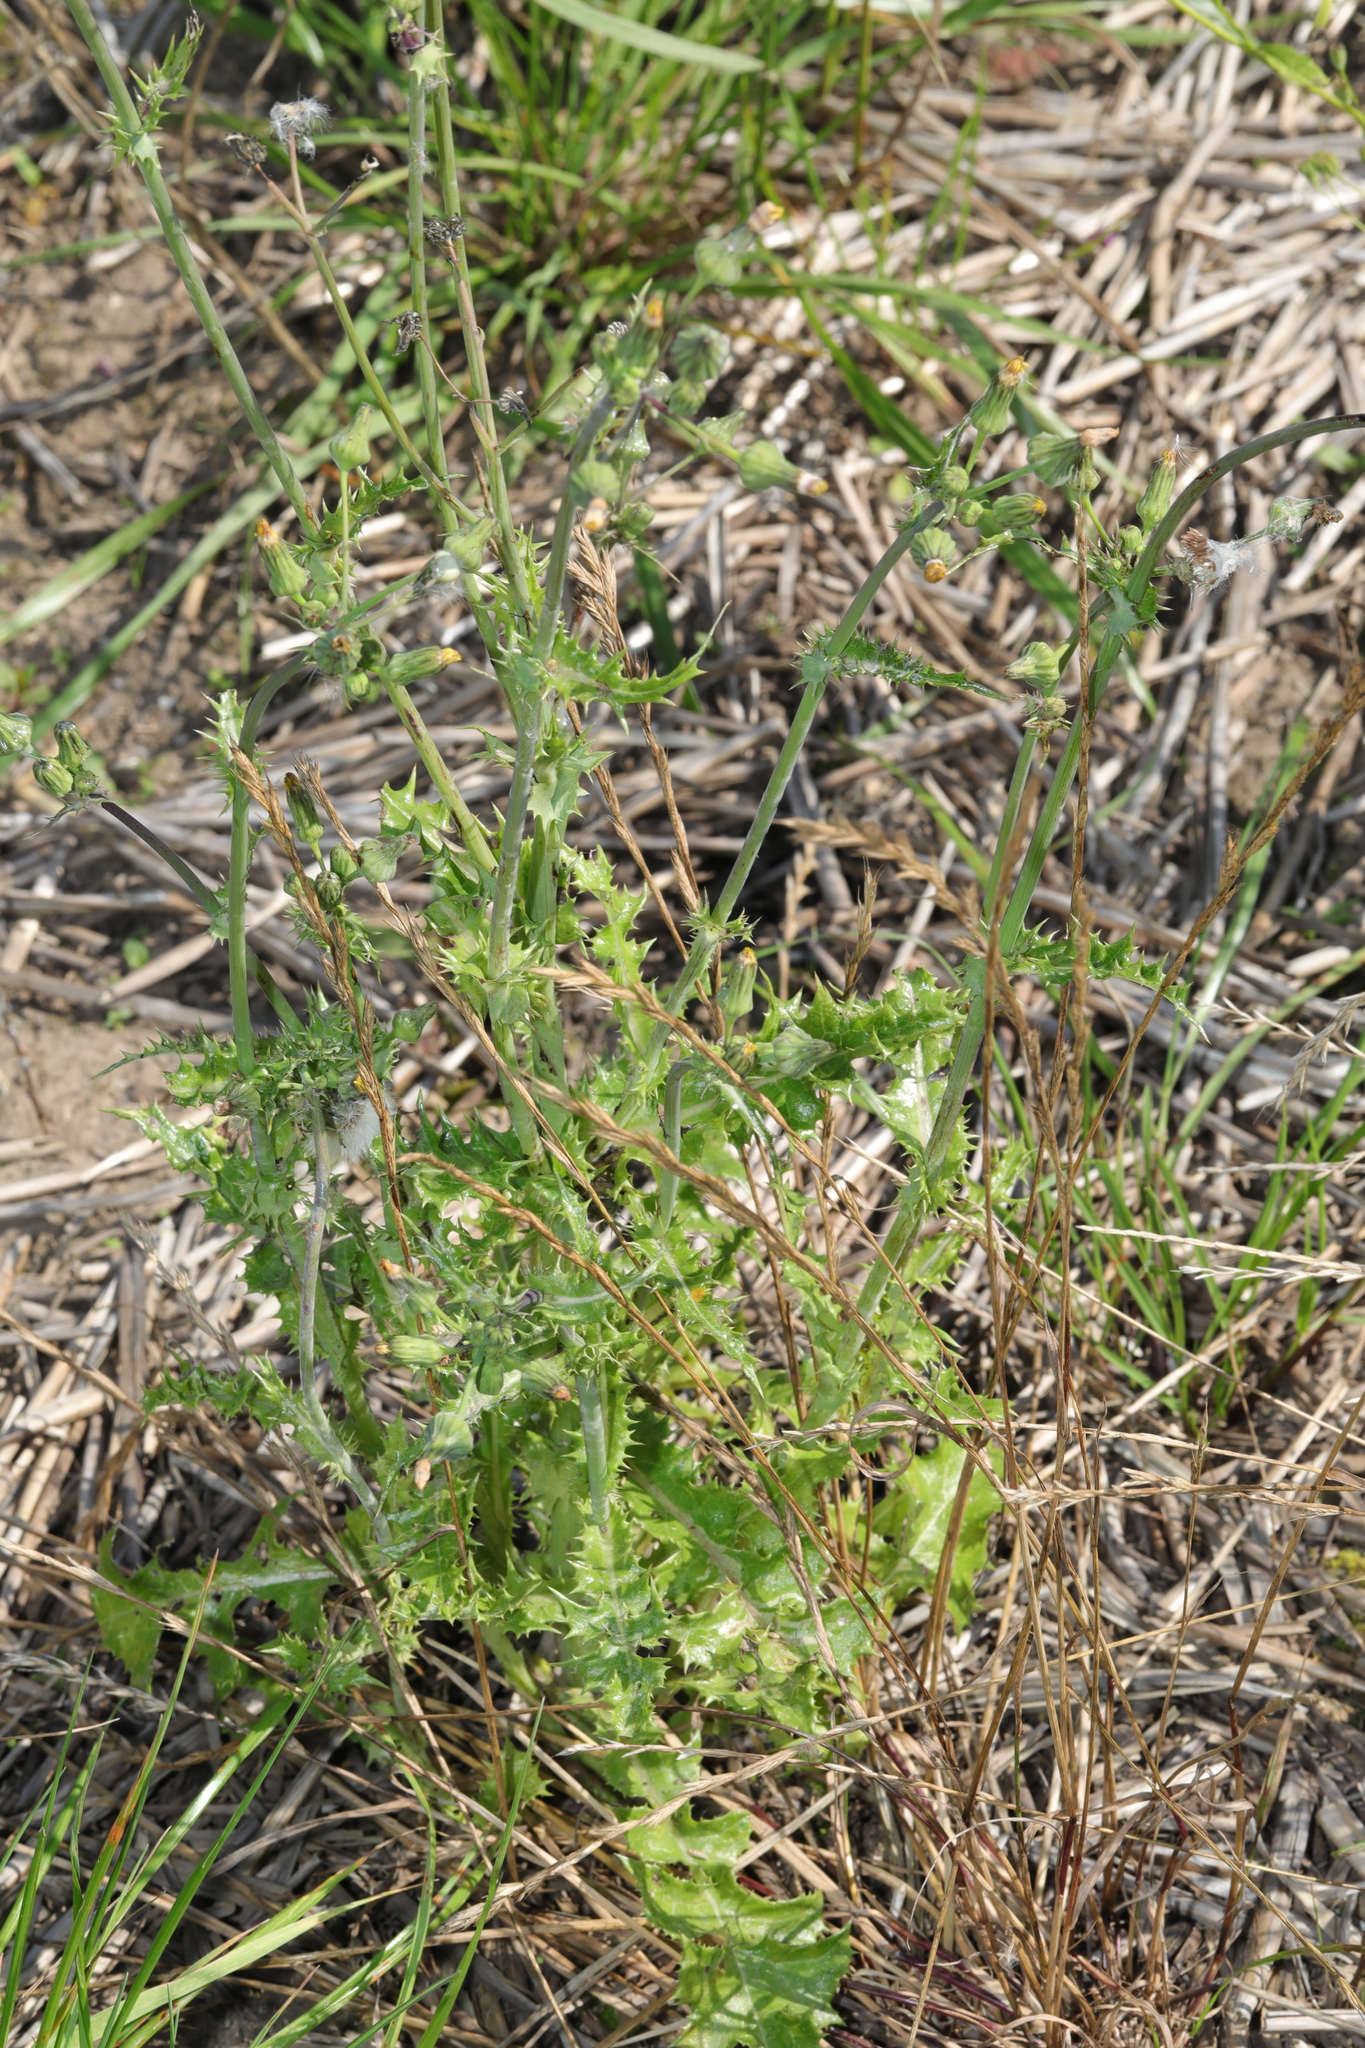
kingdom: Plantae
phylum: Tracheophyta
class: Magnoliopsida
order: Asterales
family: Asteraceae
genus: Sonchus
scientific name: Sonchus asper
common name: Prickly sow-thistle
